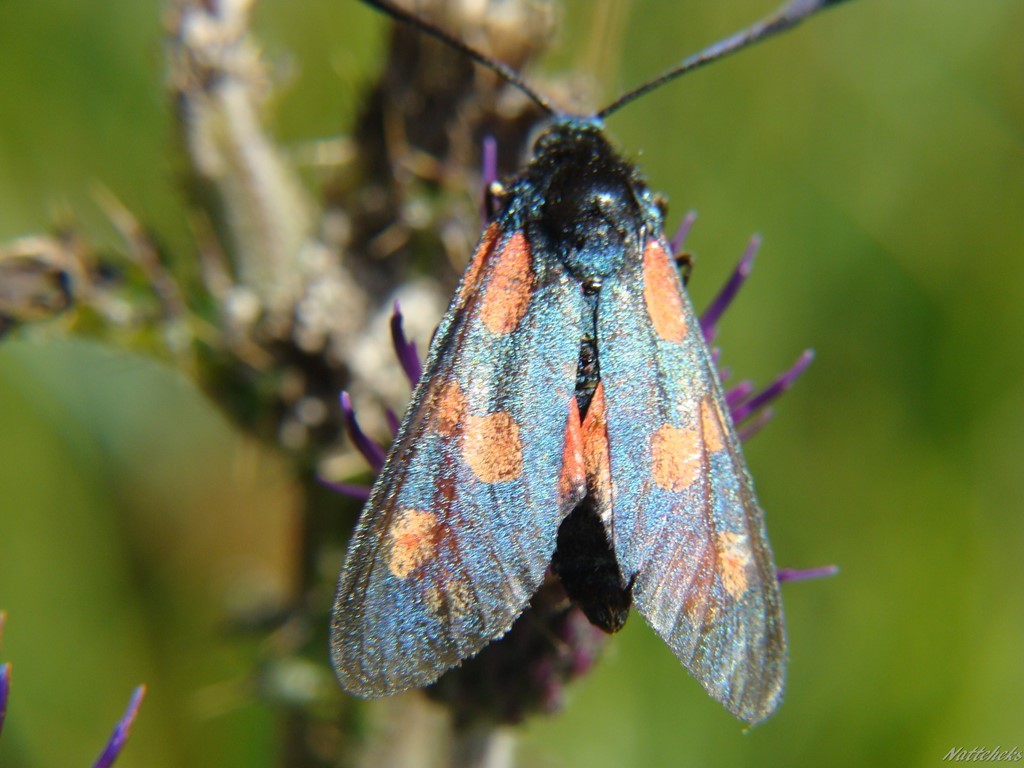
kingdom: Animalia
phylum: Arthropoda
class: Insecta
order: Lepidoptera
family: Zygaenidae
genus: Zygaena
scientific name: Zygaena filipendulae
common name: Six-spot burnet
